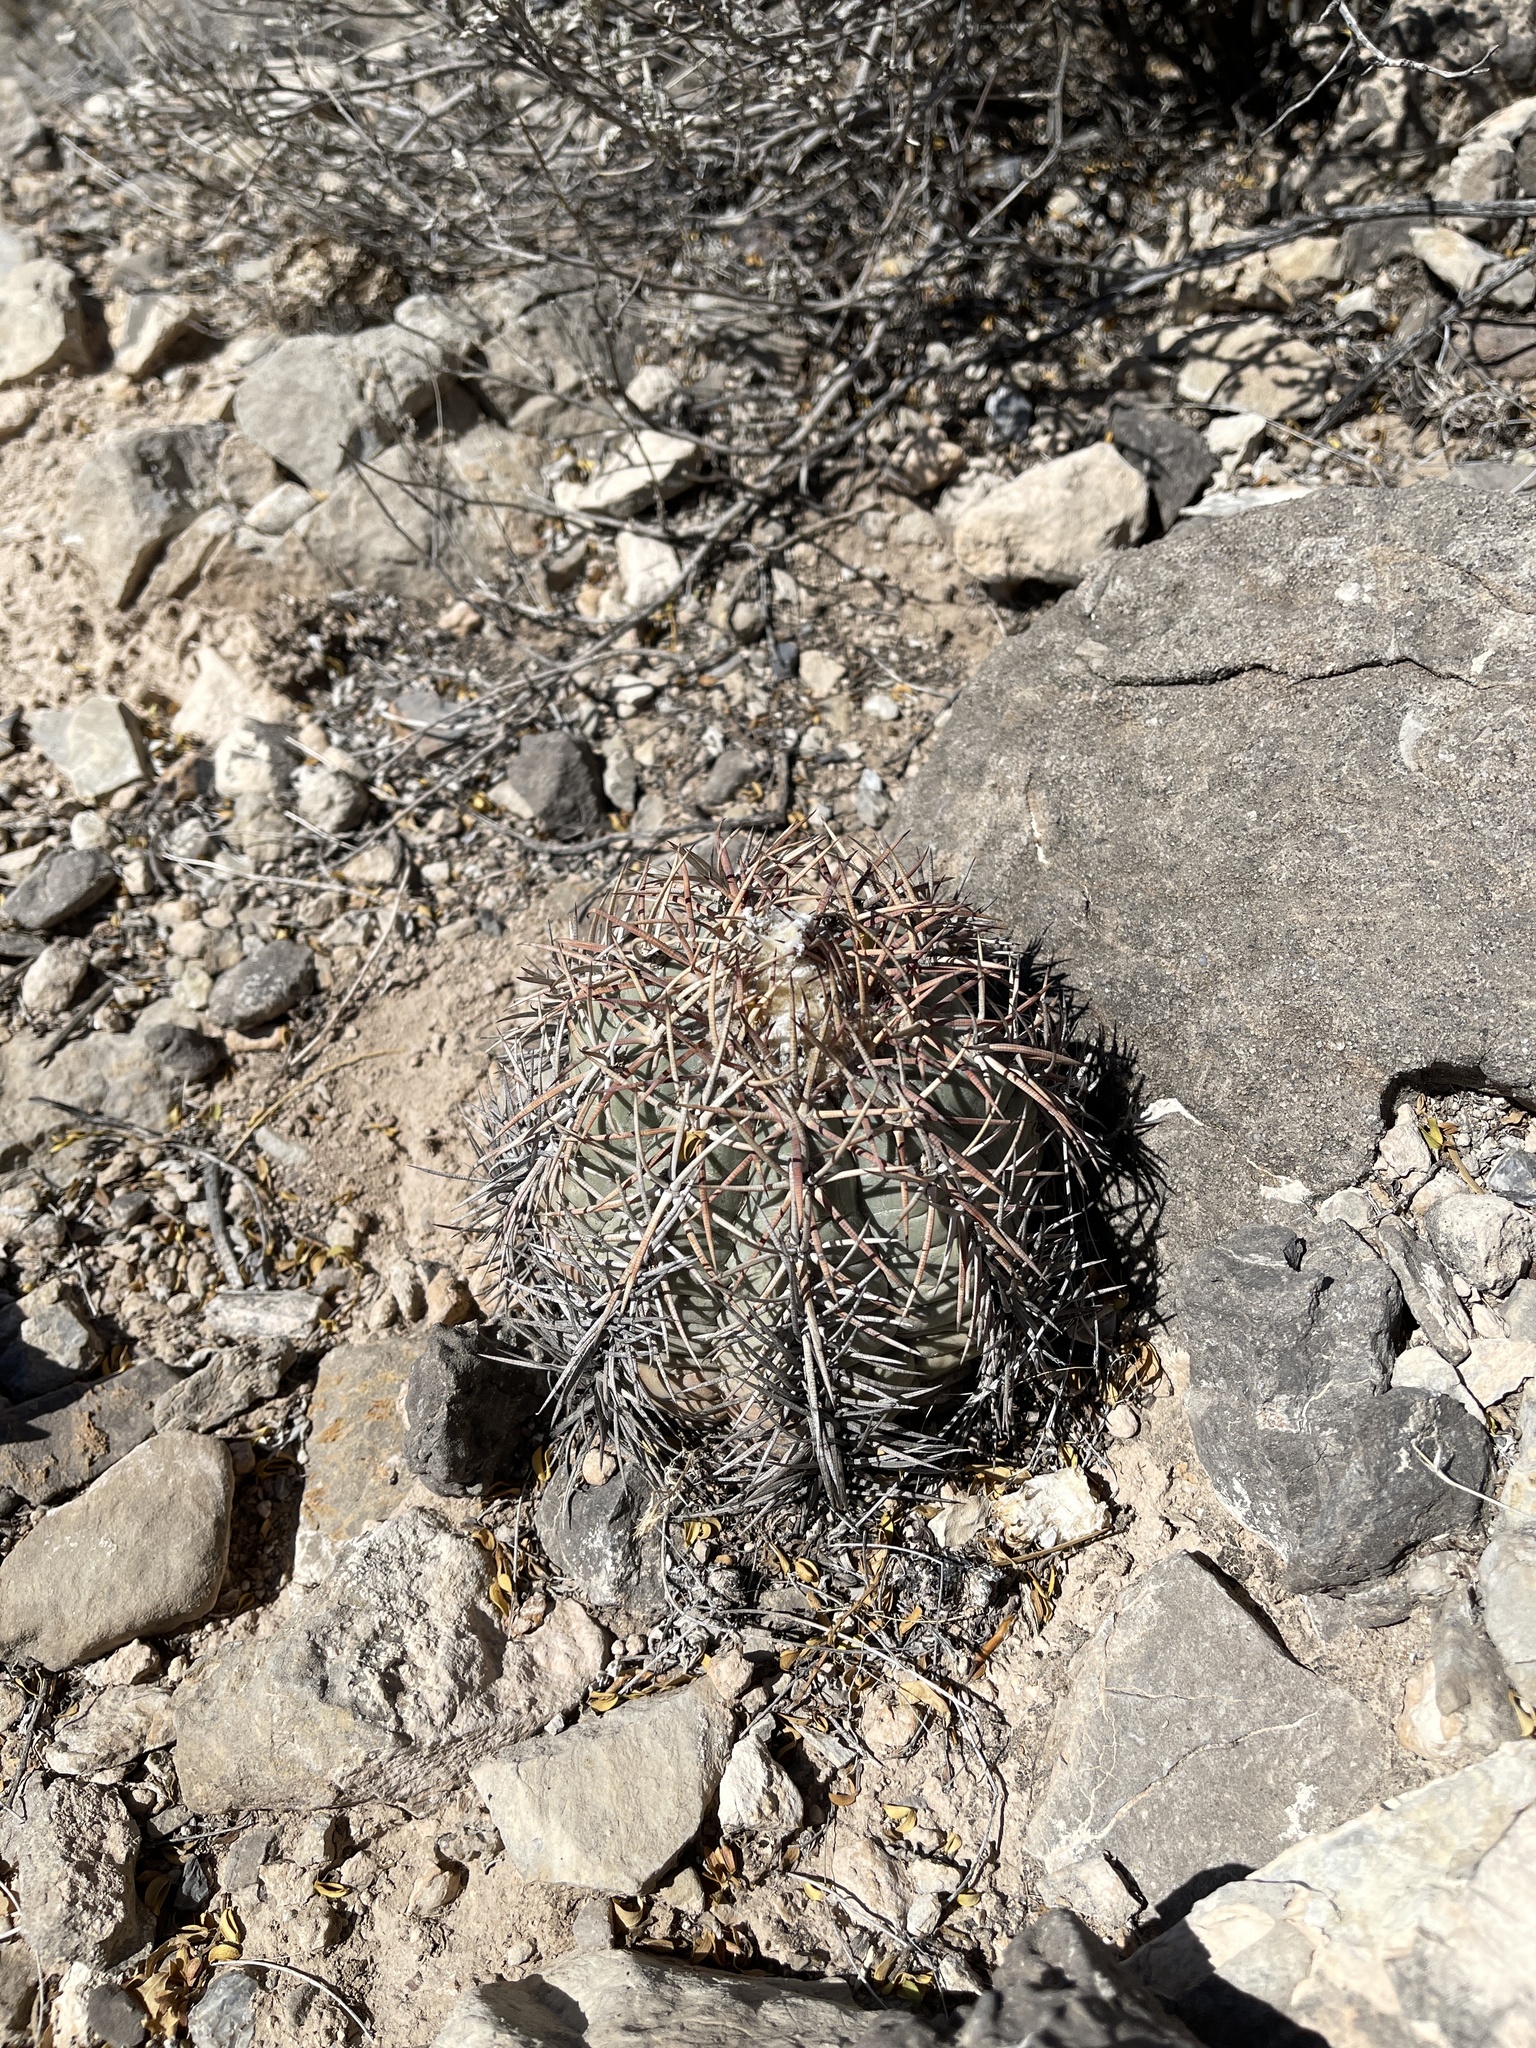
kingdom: Plantae
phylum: Tracheophyta
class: Magnoliopsida
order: Caryophyllales
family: Cactaceae
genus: Echinocactus
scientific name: Echinocactus horizonthalonius
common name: Devilshead
